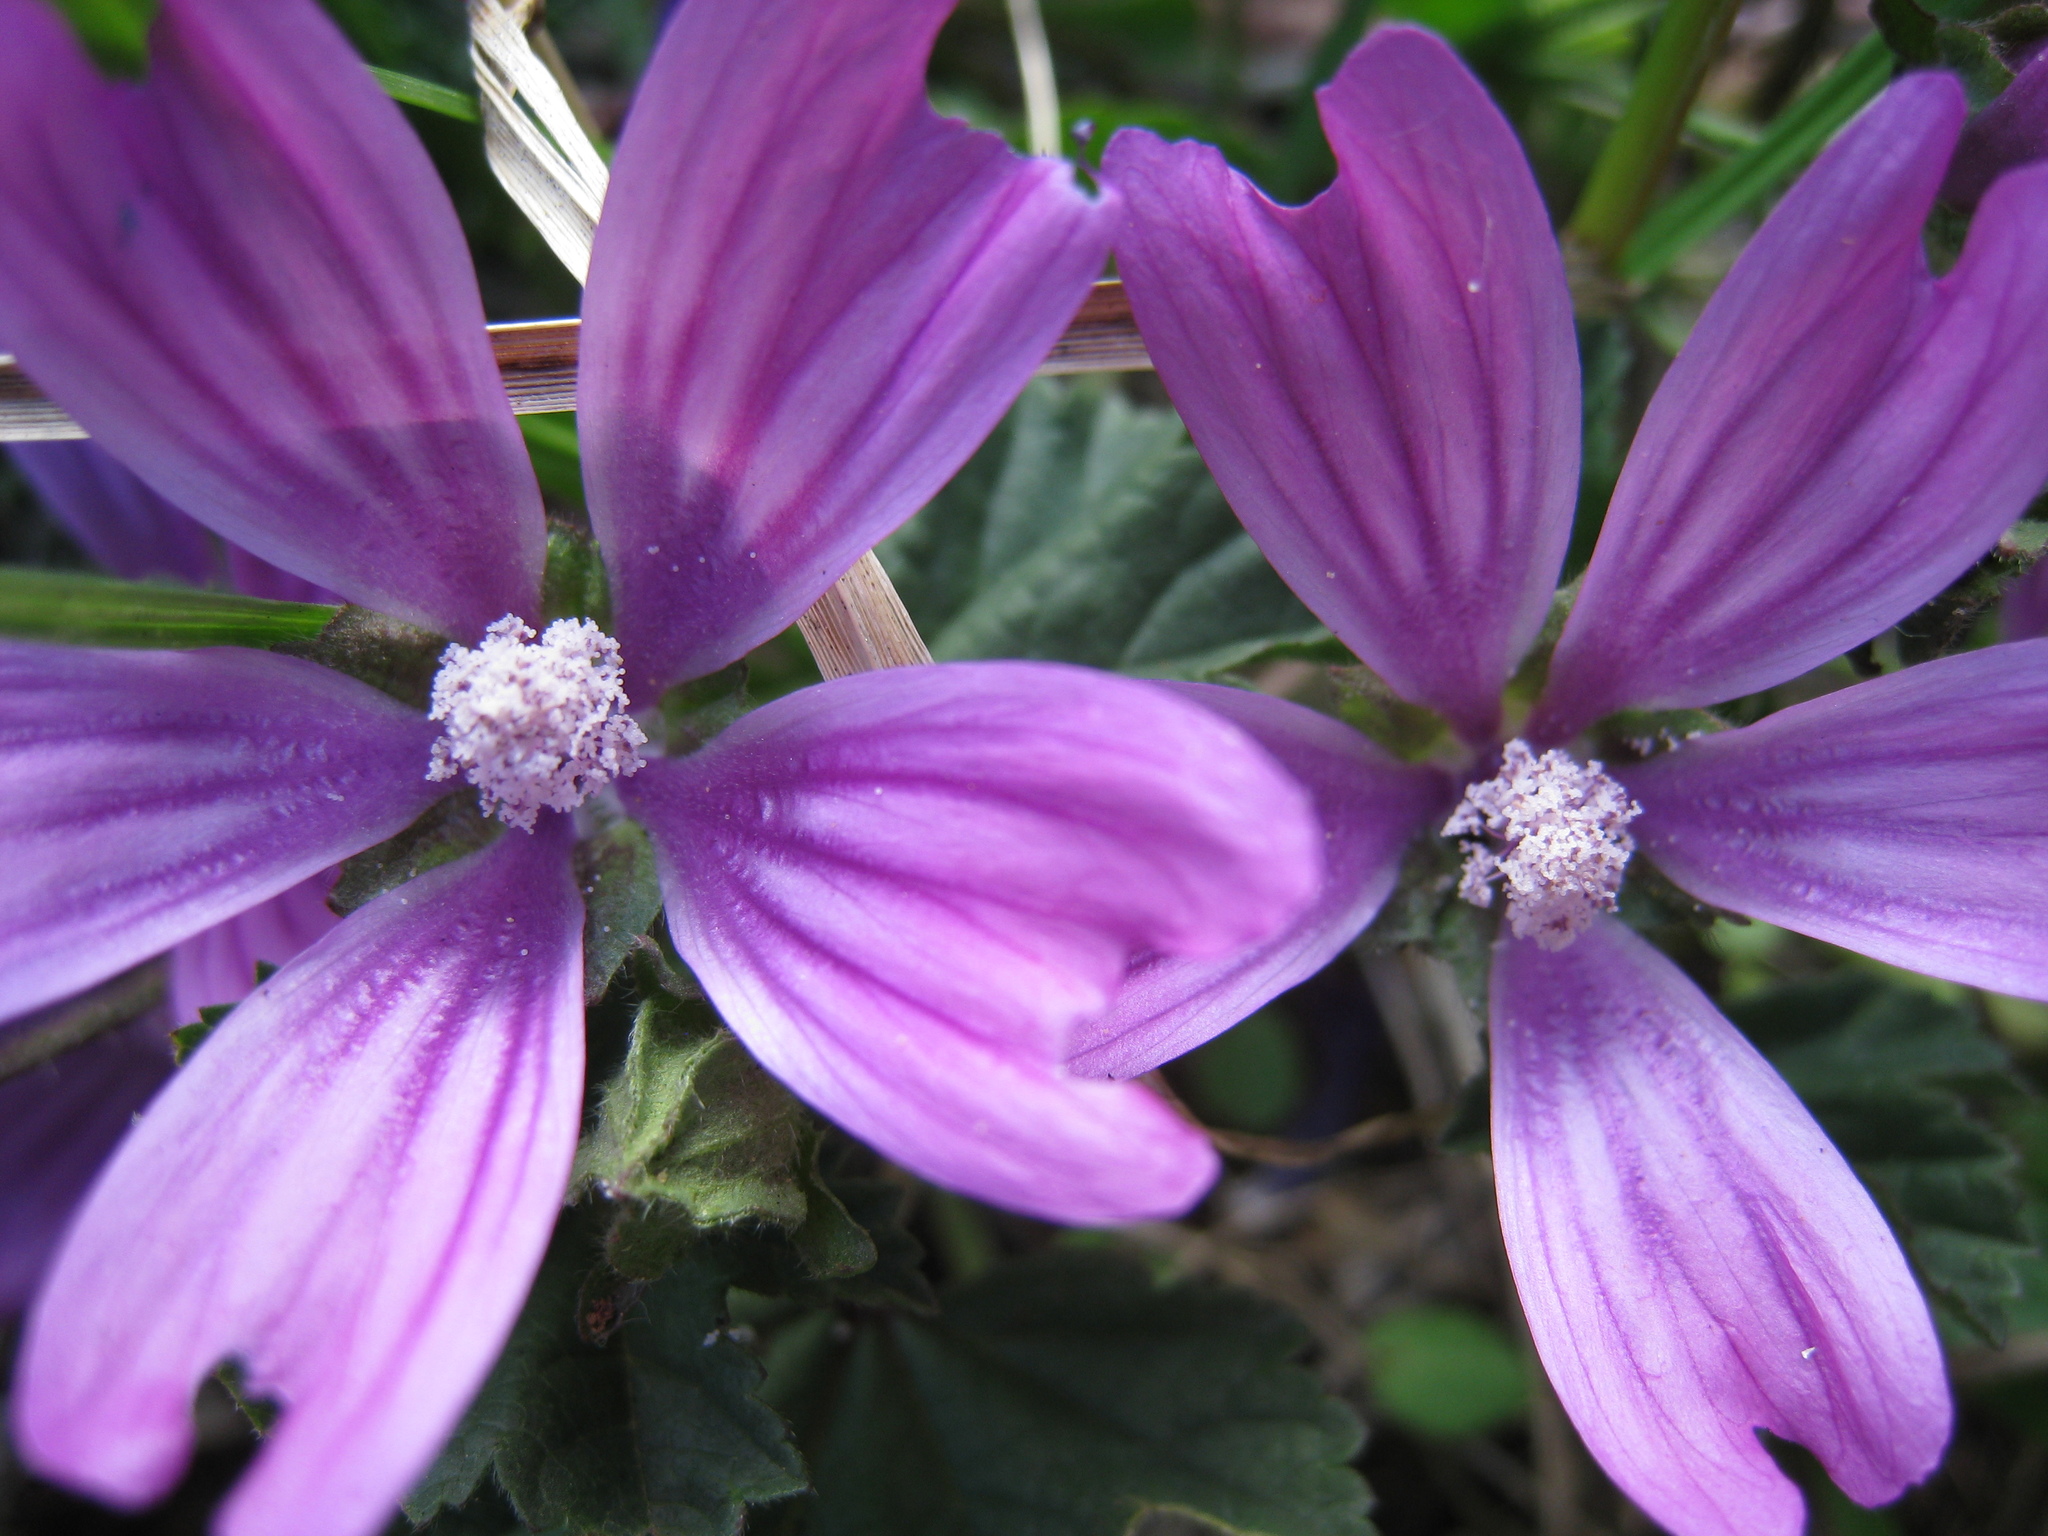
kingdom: Plantae
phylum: Tracheophyta
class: Magnoliopsida
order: Malvales
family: Malvaceae
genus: Malva
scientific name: Malva sylvestris
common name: Common mallow
